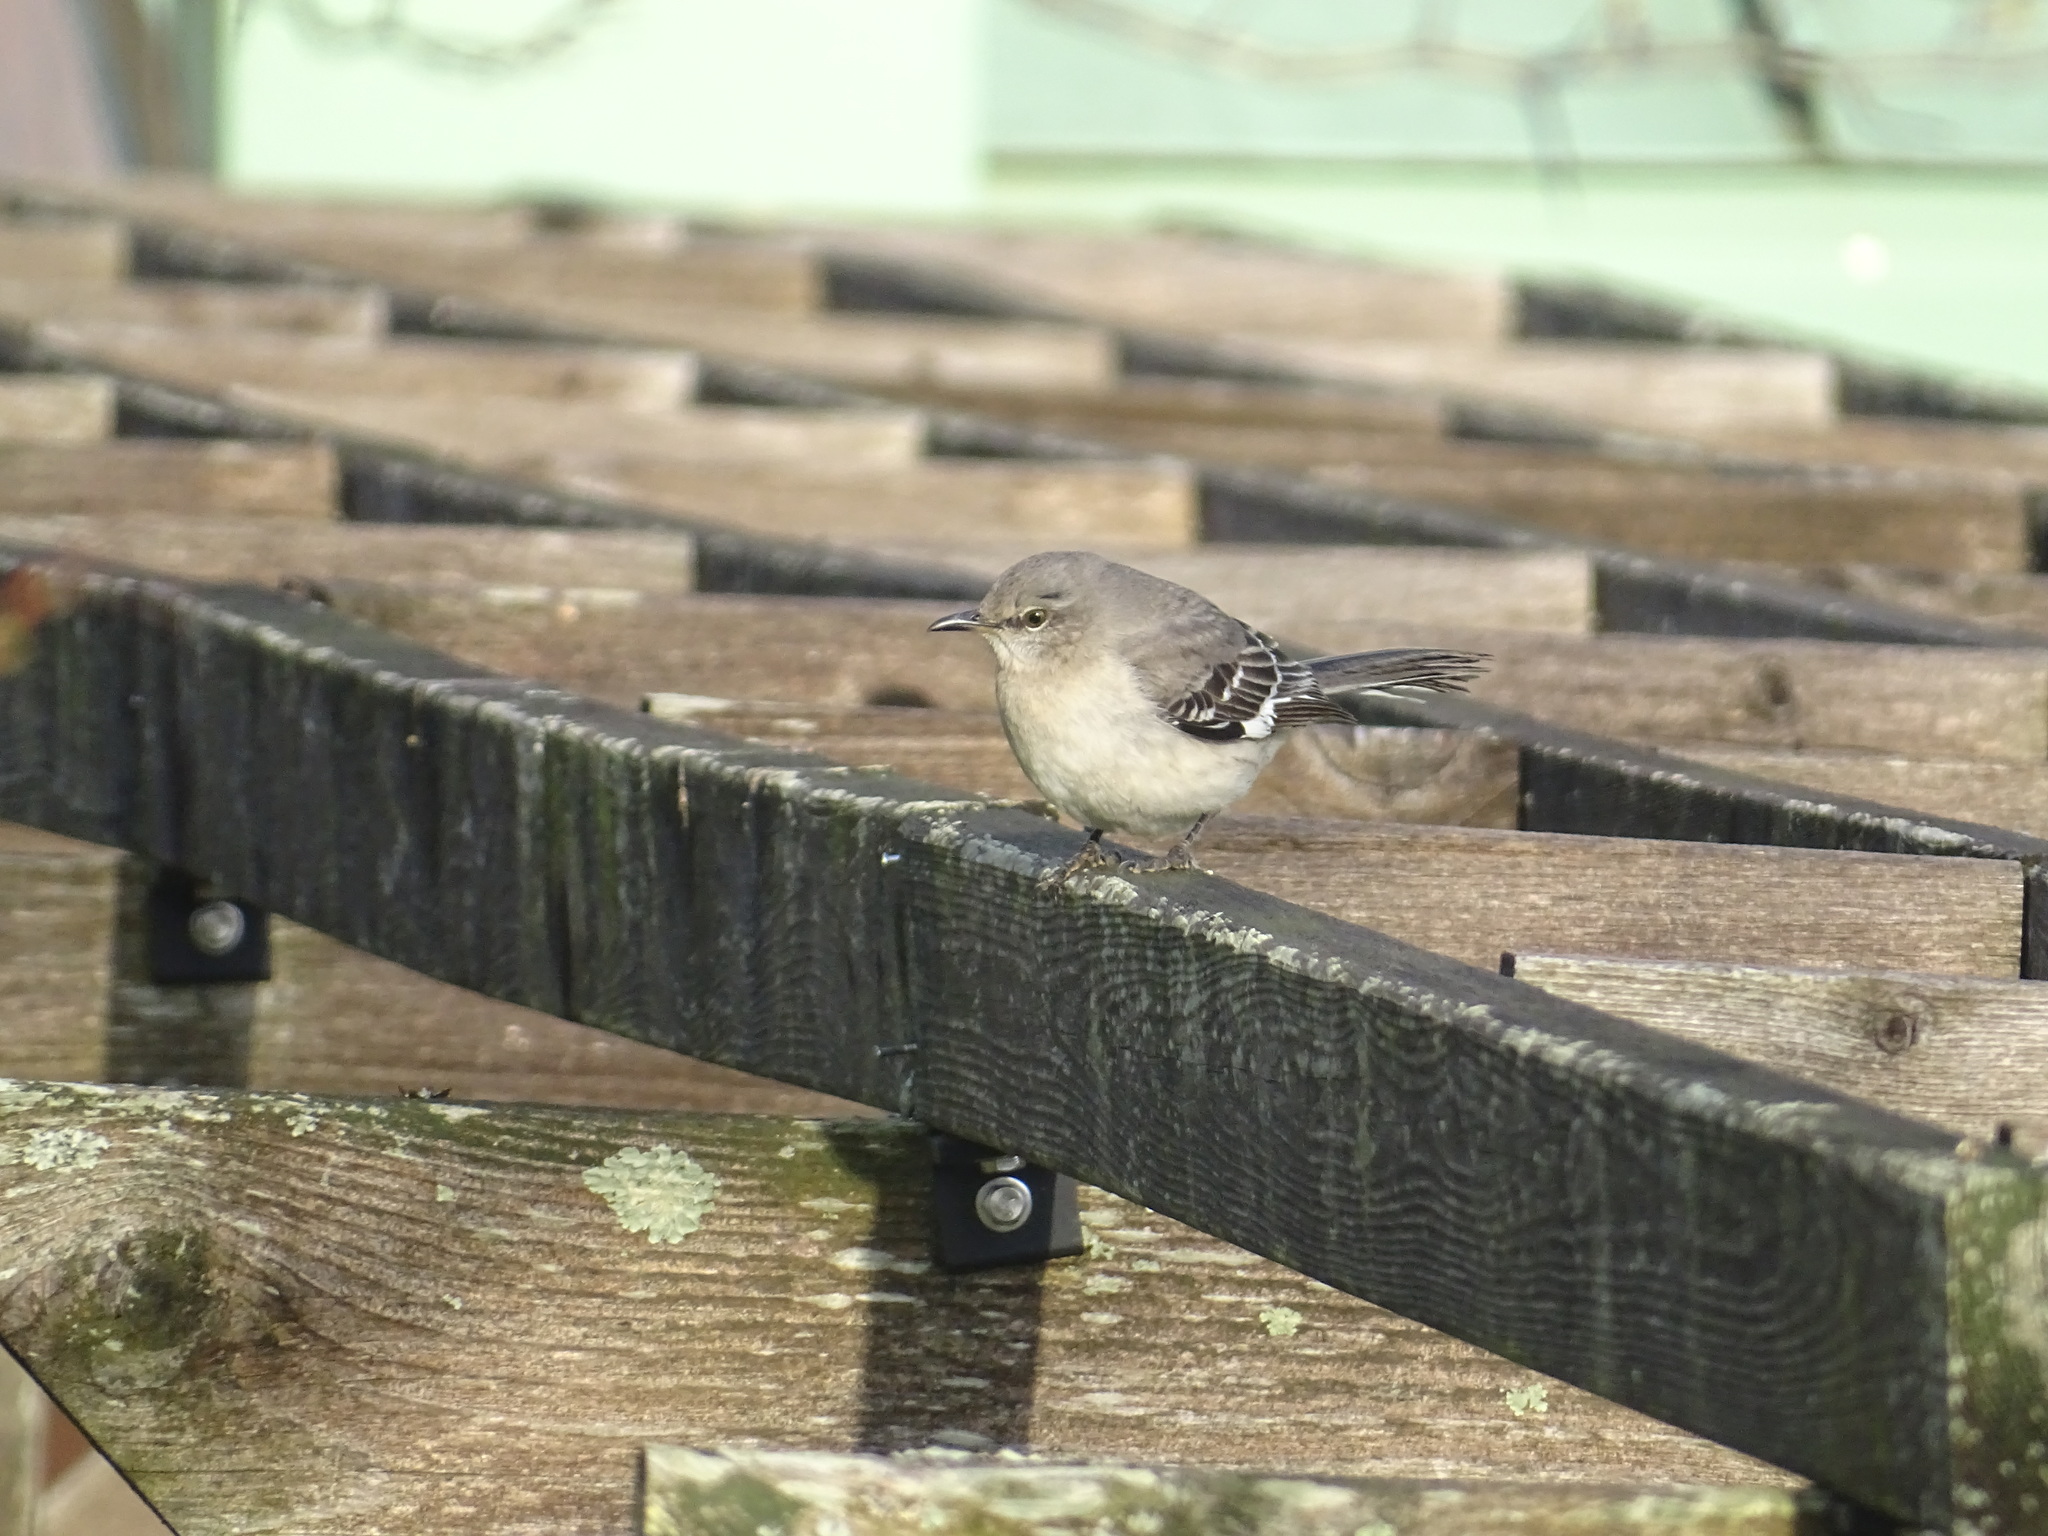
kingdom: Animalia
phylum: Chordata
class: Aves
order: Passeriformes
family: Mimidae
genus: Mimus
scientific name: Mimus polyglottos
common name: Northern mockingbird
